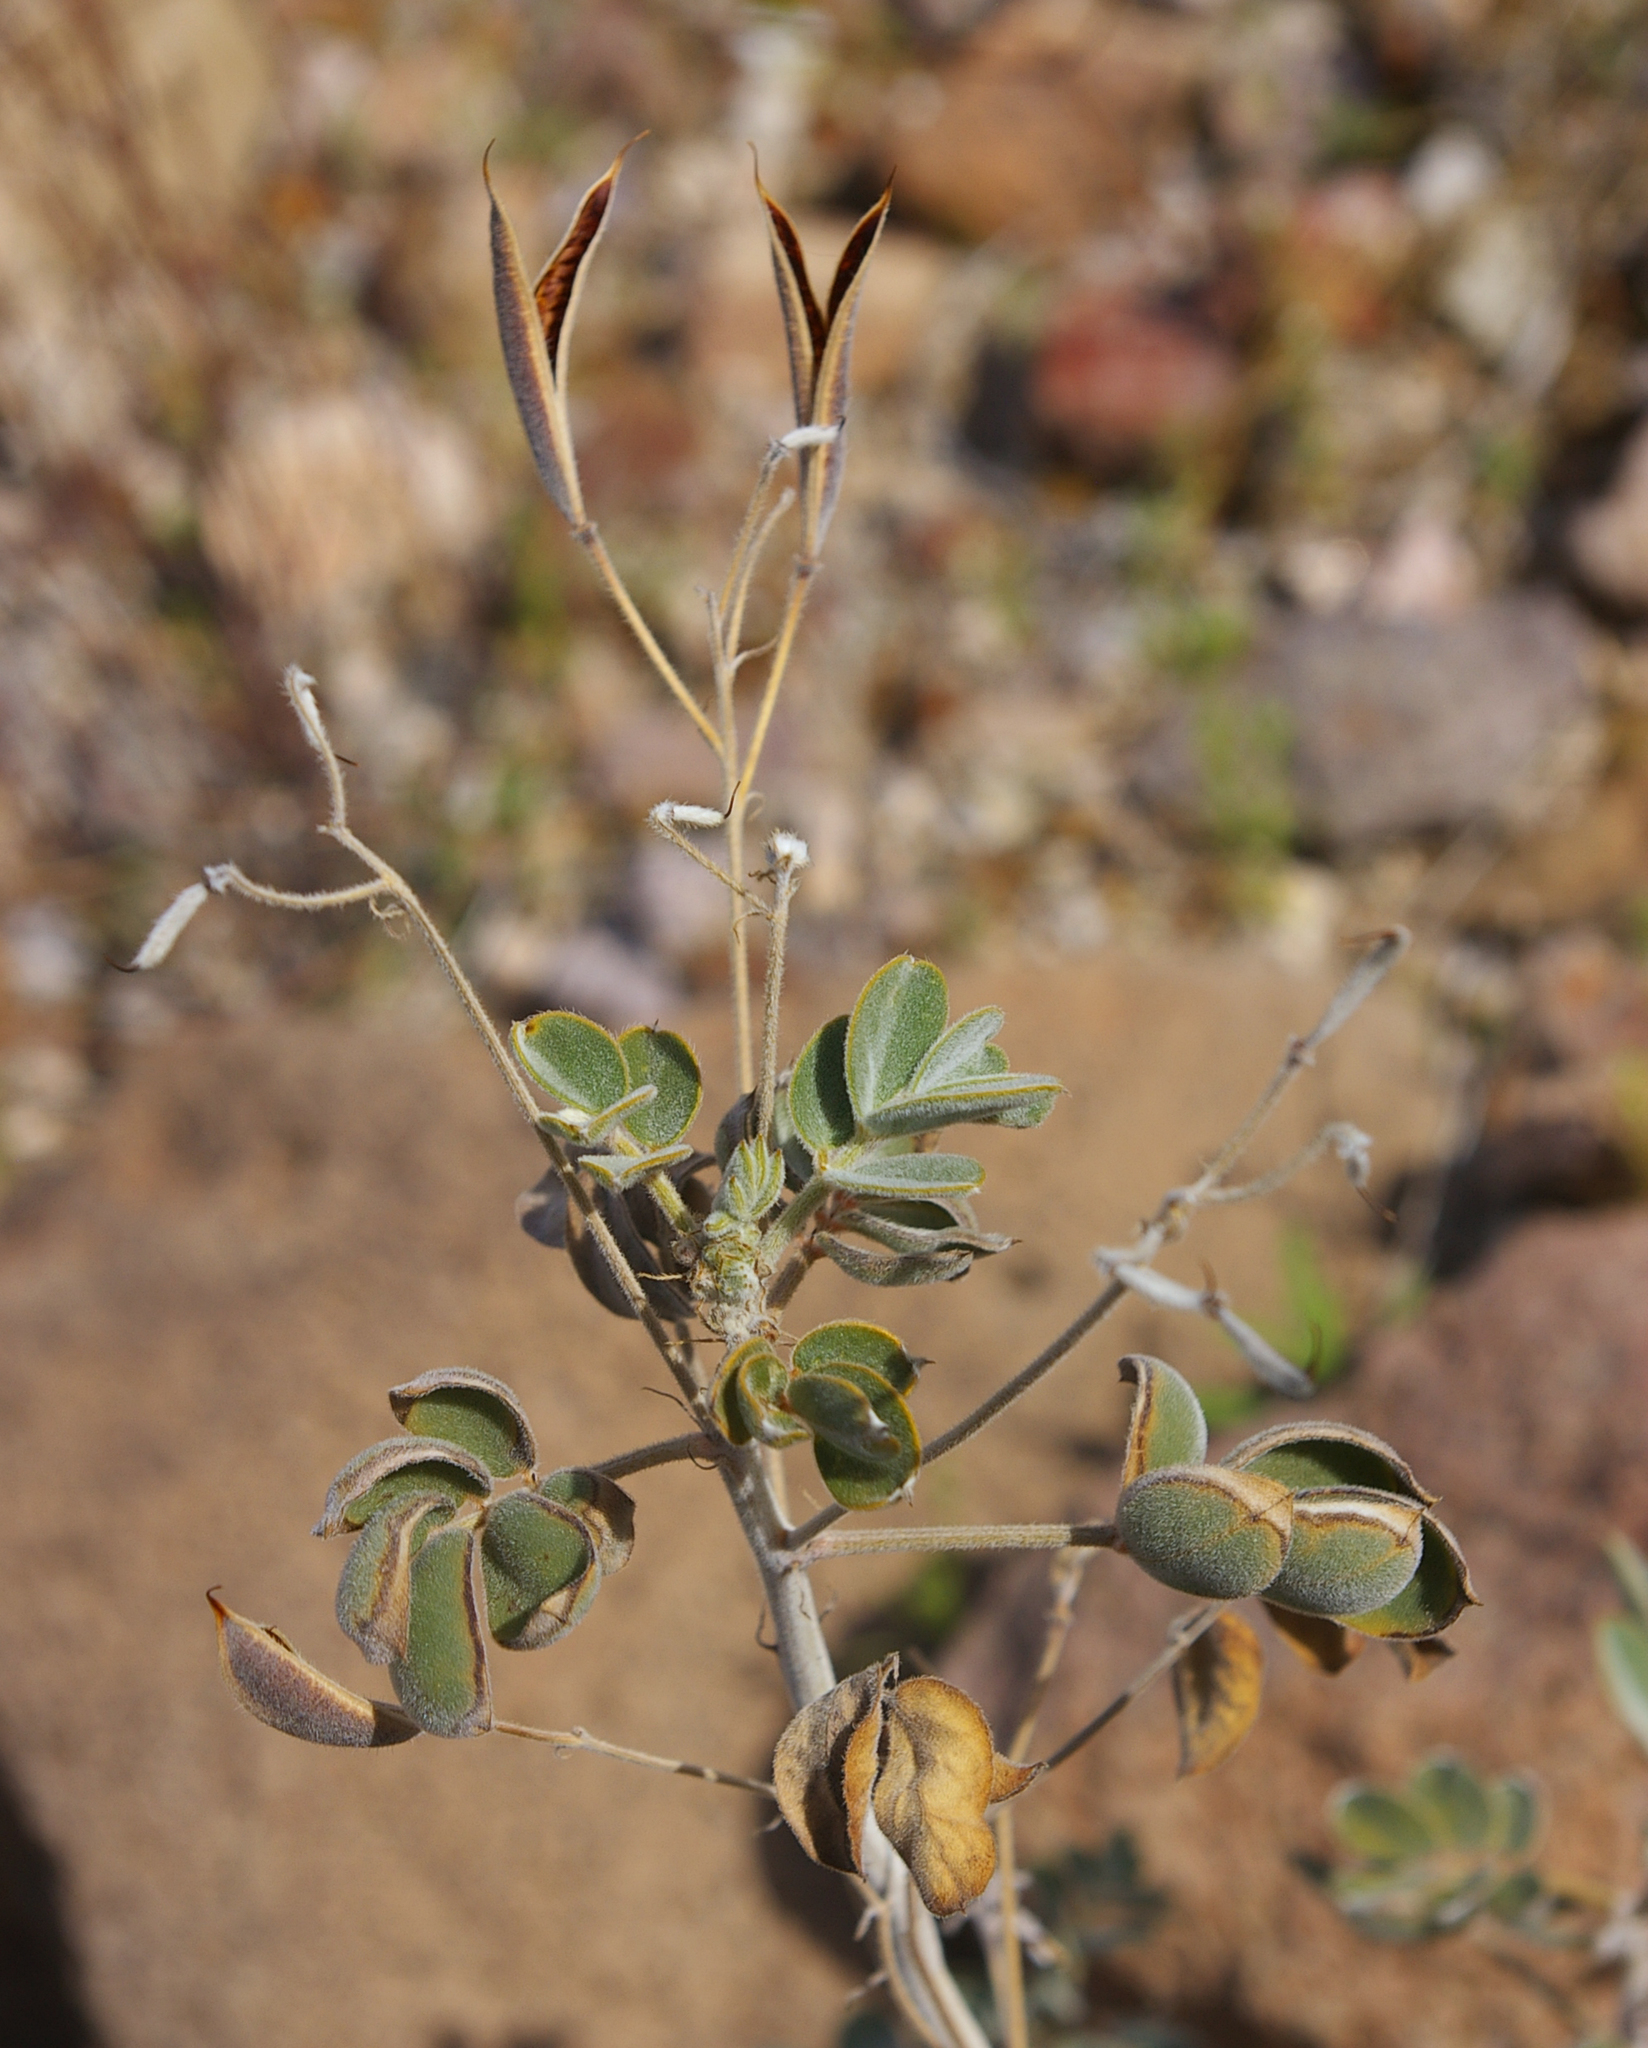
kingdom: Plantae
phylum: Tracheophyta
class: Magnoliopsida
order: Fabales
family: Fabaceae
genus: Senna
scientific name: Senna covesii
